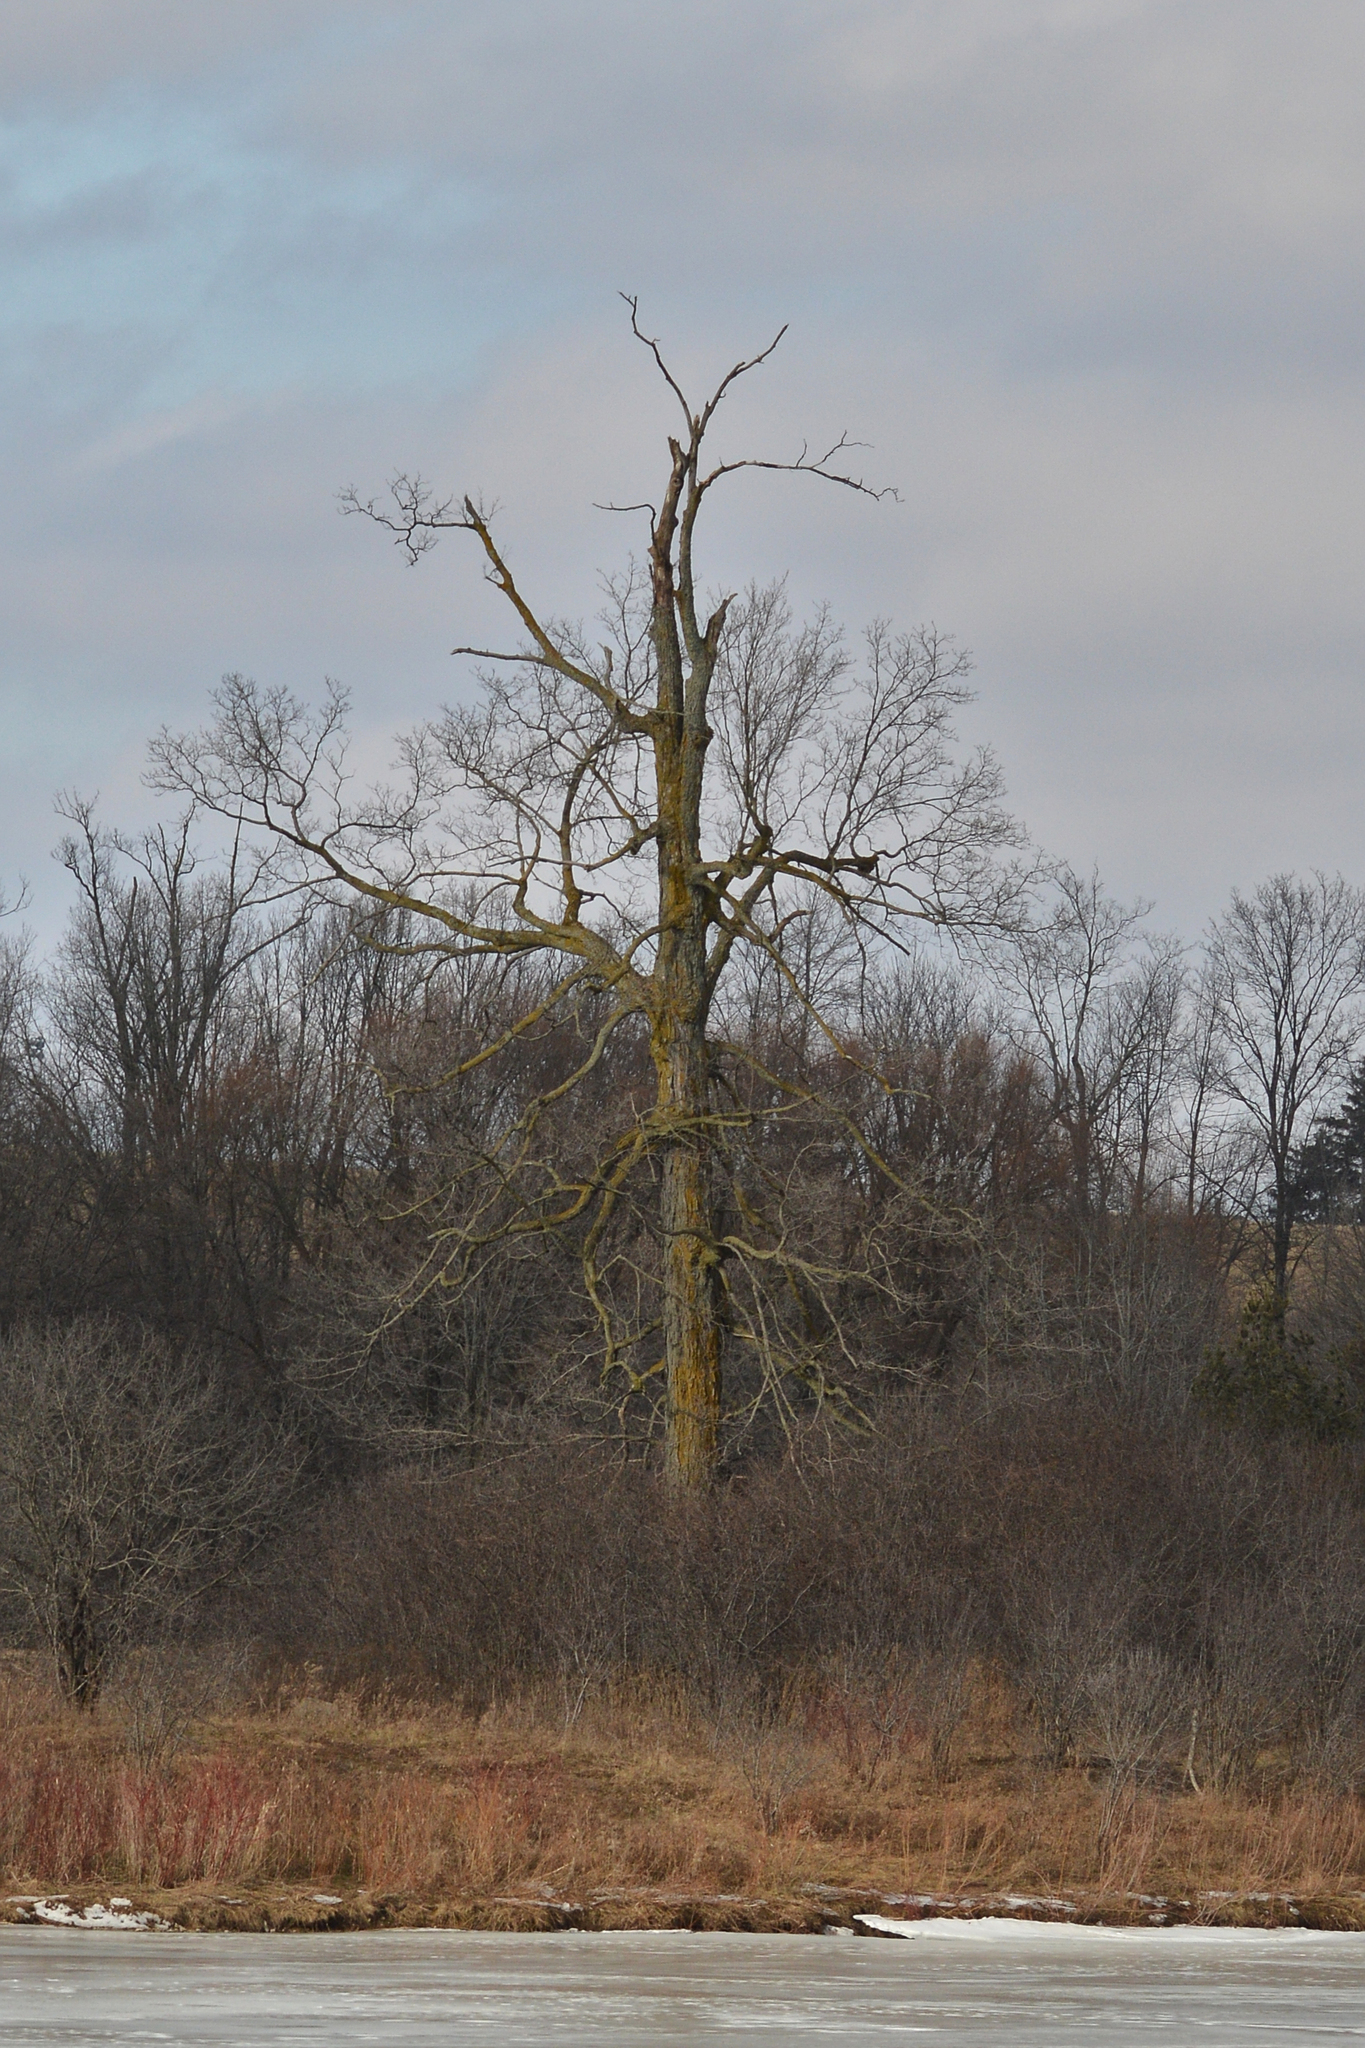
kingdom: Plantae
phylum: Tracheophyta
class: Magnoliopsida
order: Sapindales
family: Sapindaceae
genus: Acer
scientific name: Acer saccharum
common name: Sugar maple
